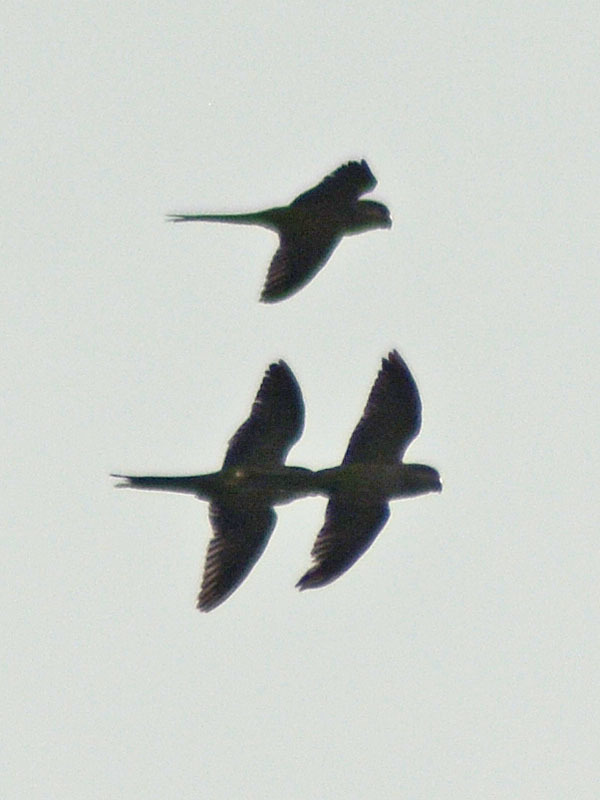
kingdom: Animalia
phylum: Chordata
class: Aves
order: Psittaciformes
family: Psittacidae
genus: Myiopsitta
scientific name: Myiopsitta monachus
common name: Monk parakeet
